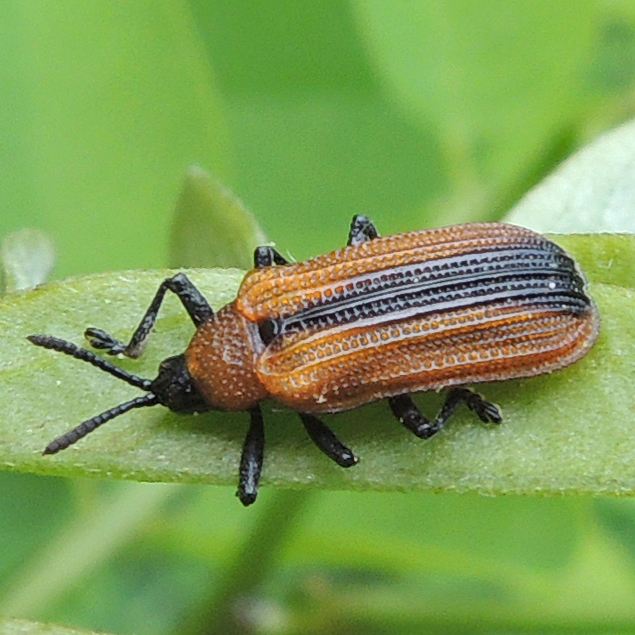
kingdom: Animalia
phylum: Arthropoda
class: Insecta
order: Coleoptera
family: Chrysomelidae
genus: Odontota
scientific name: Odontota dorsalis
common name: Locust leaf-miner beetle
